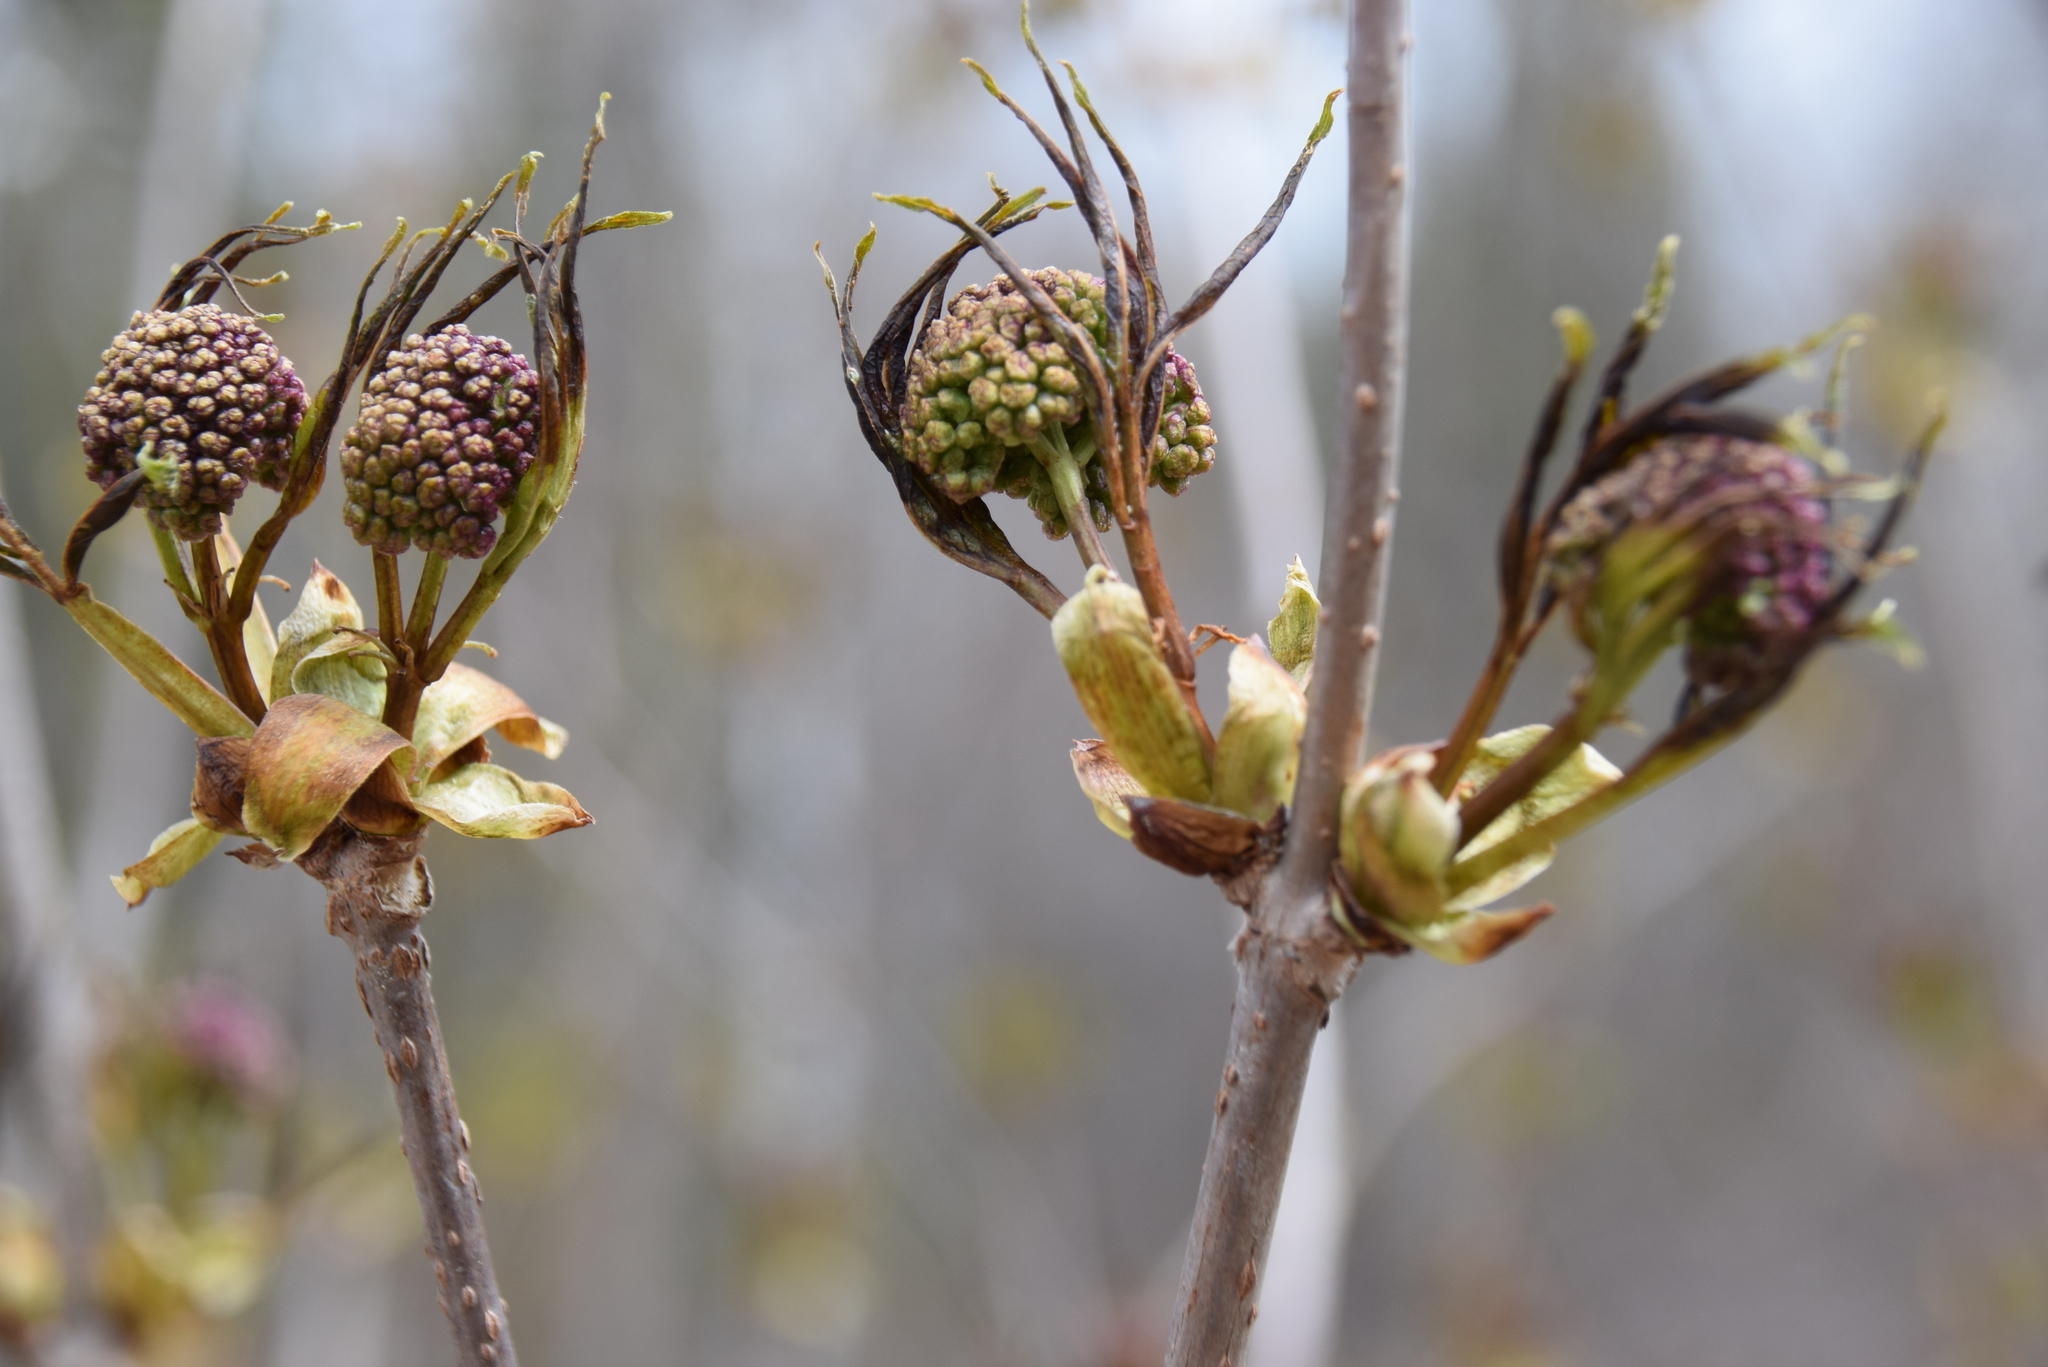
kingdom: Plantae
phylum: Tracheophyta
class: Magnoliopsida
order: Dipsacales
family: Viburnaceae
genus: Sambucus
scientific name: Sambucus racemosa
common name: Red-berried elder
